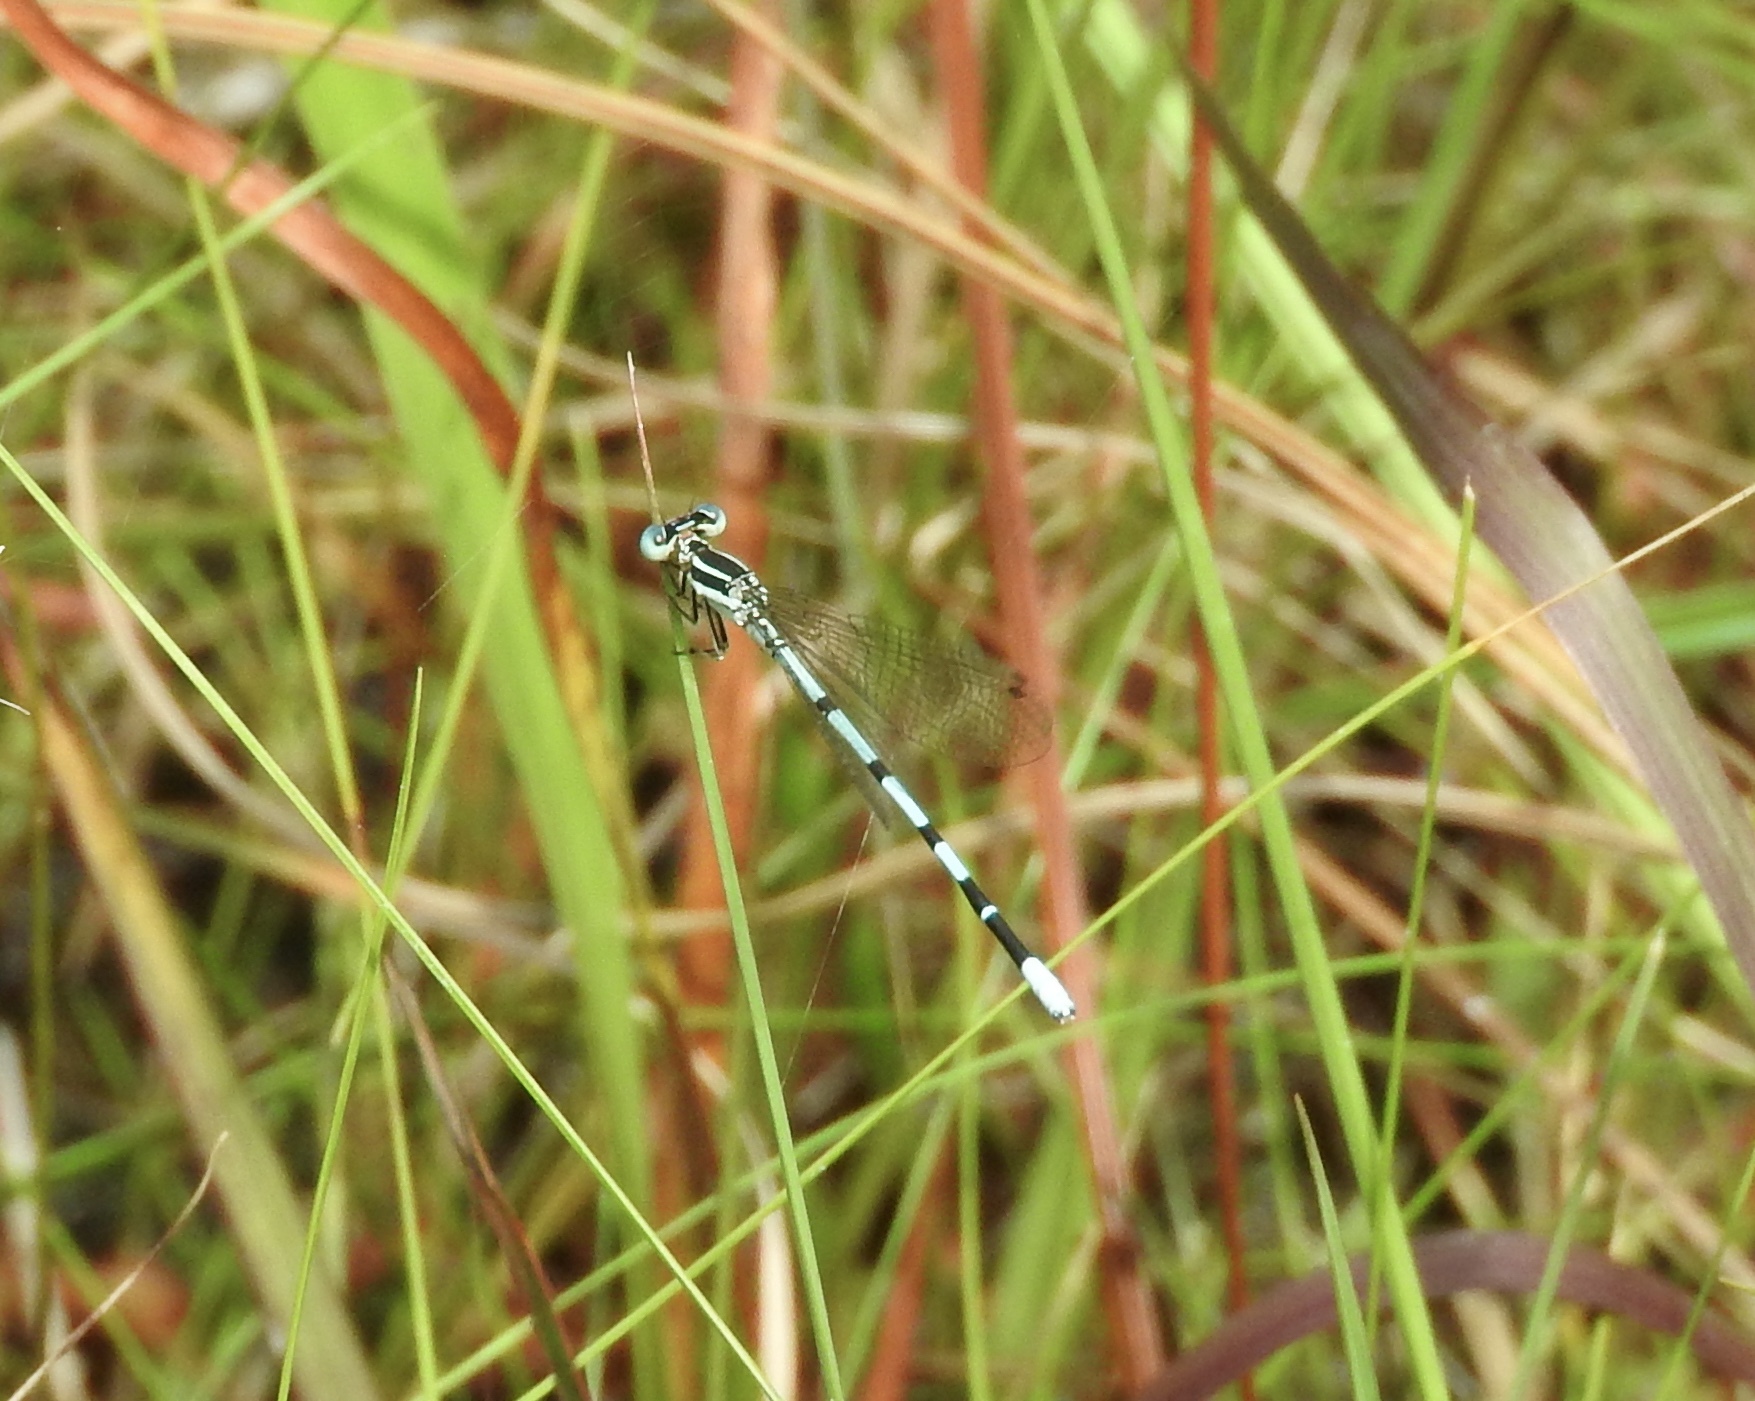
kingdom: Animalia
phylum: Arthropoda
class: Insecta
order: Odonata
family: Coenagrionidae
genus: Argia
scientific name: Argia bipunctulata
